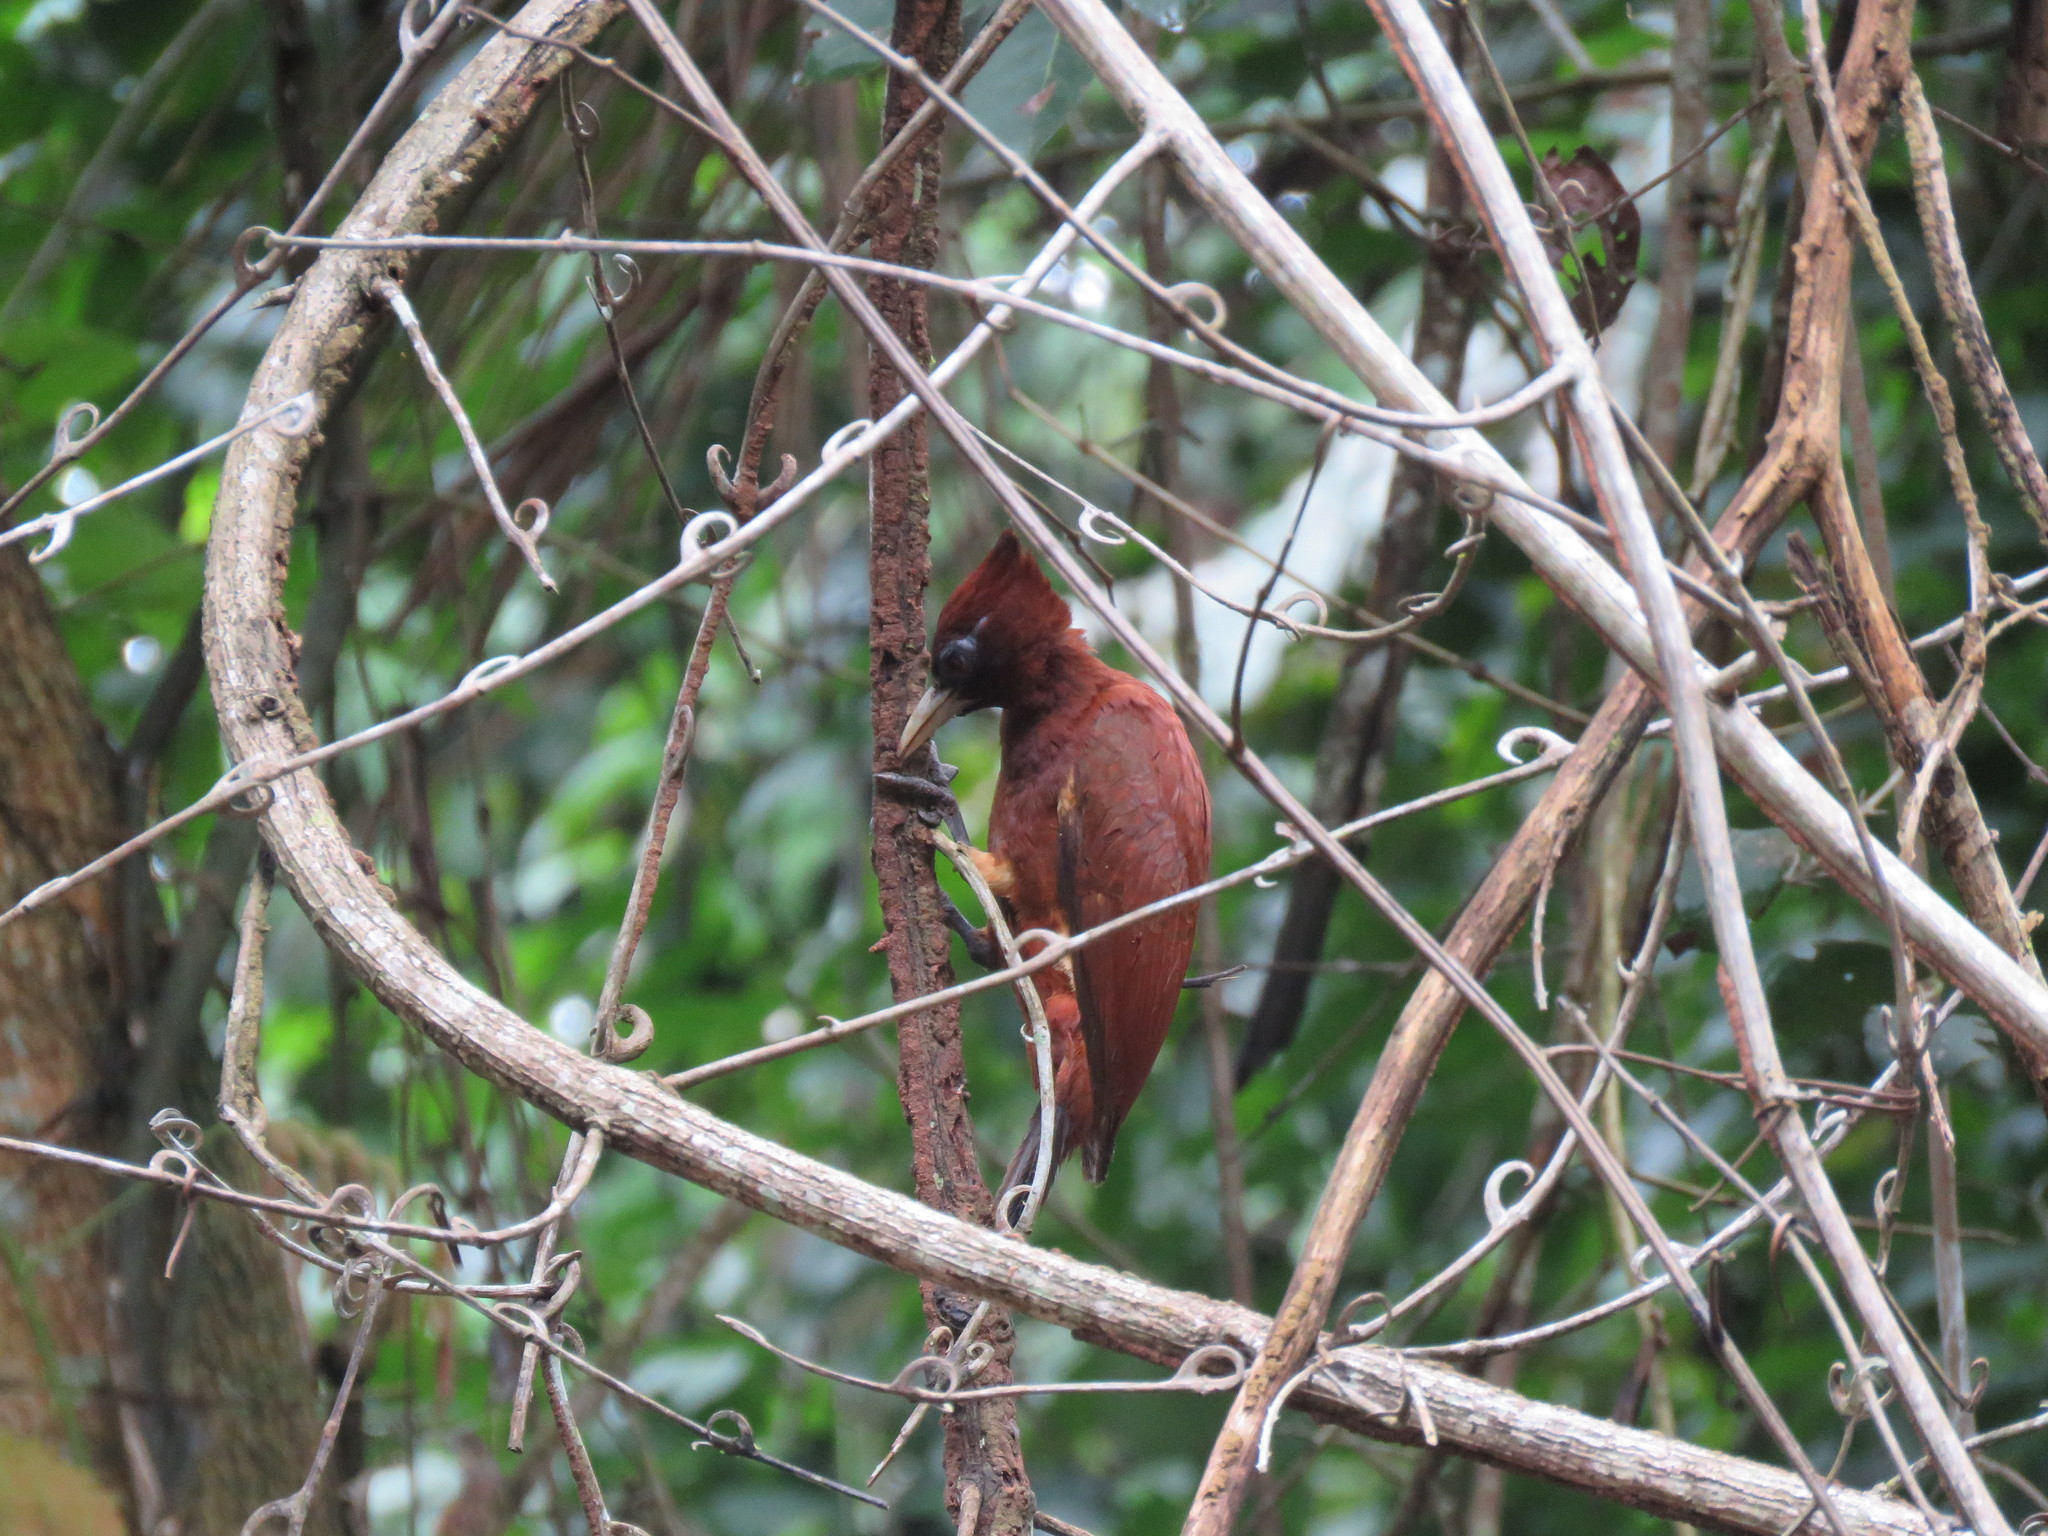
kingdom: Animalia
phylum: Chordata
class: Aves
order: Piciformes
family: Picidae
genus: Celeus
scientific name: Celeus elegans
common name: Chestnut woodpecker
